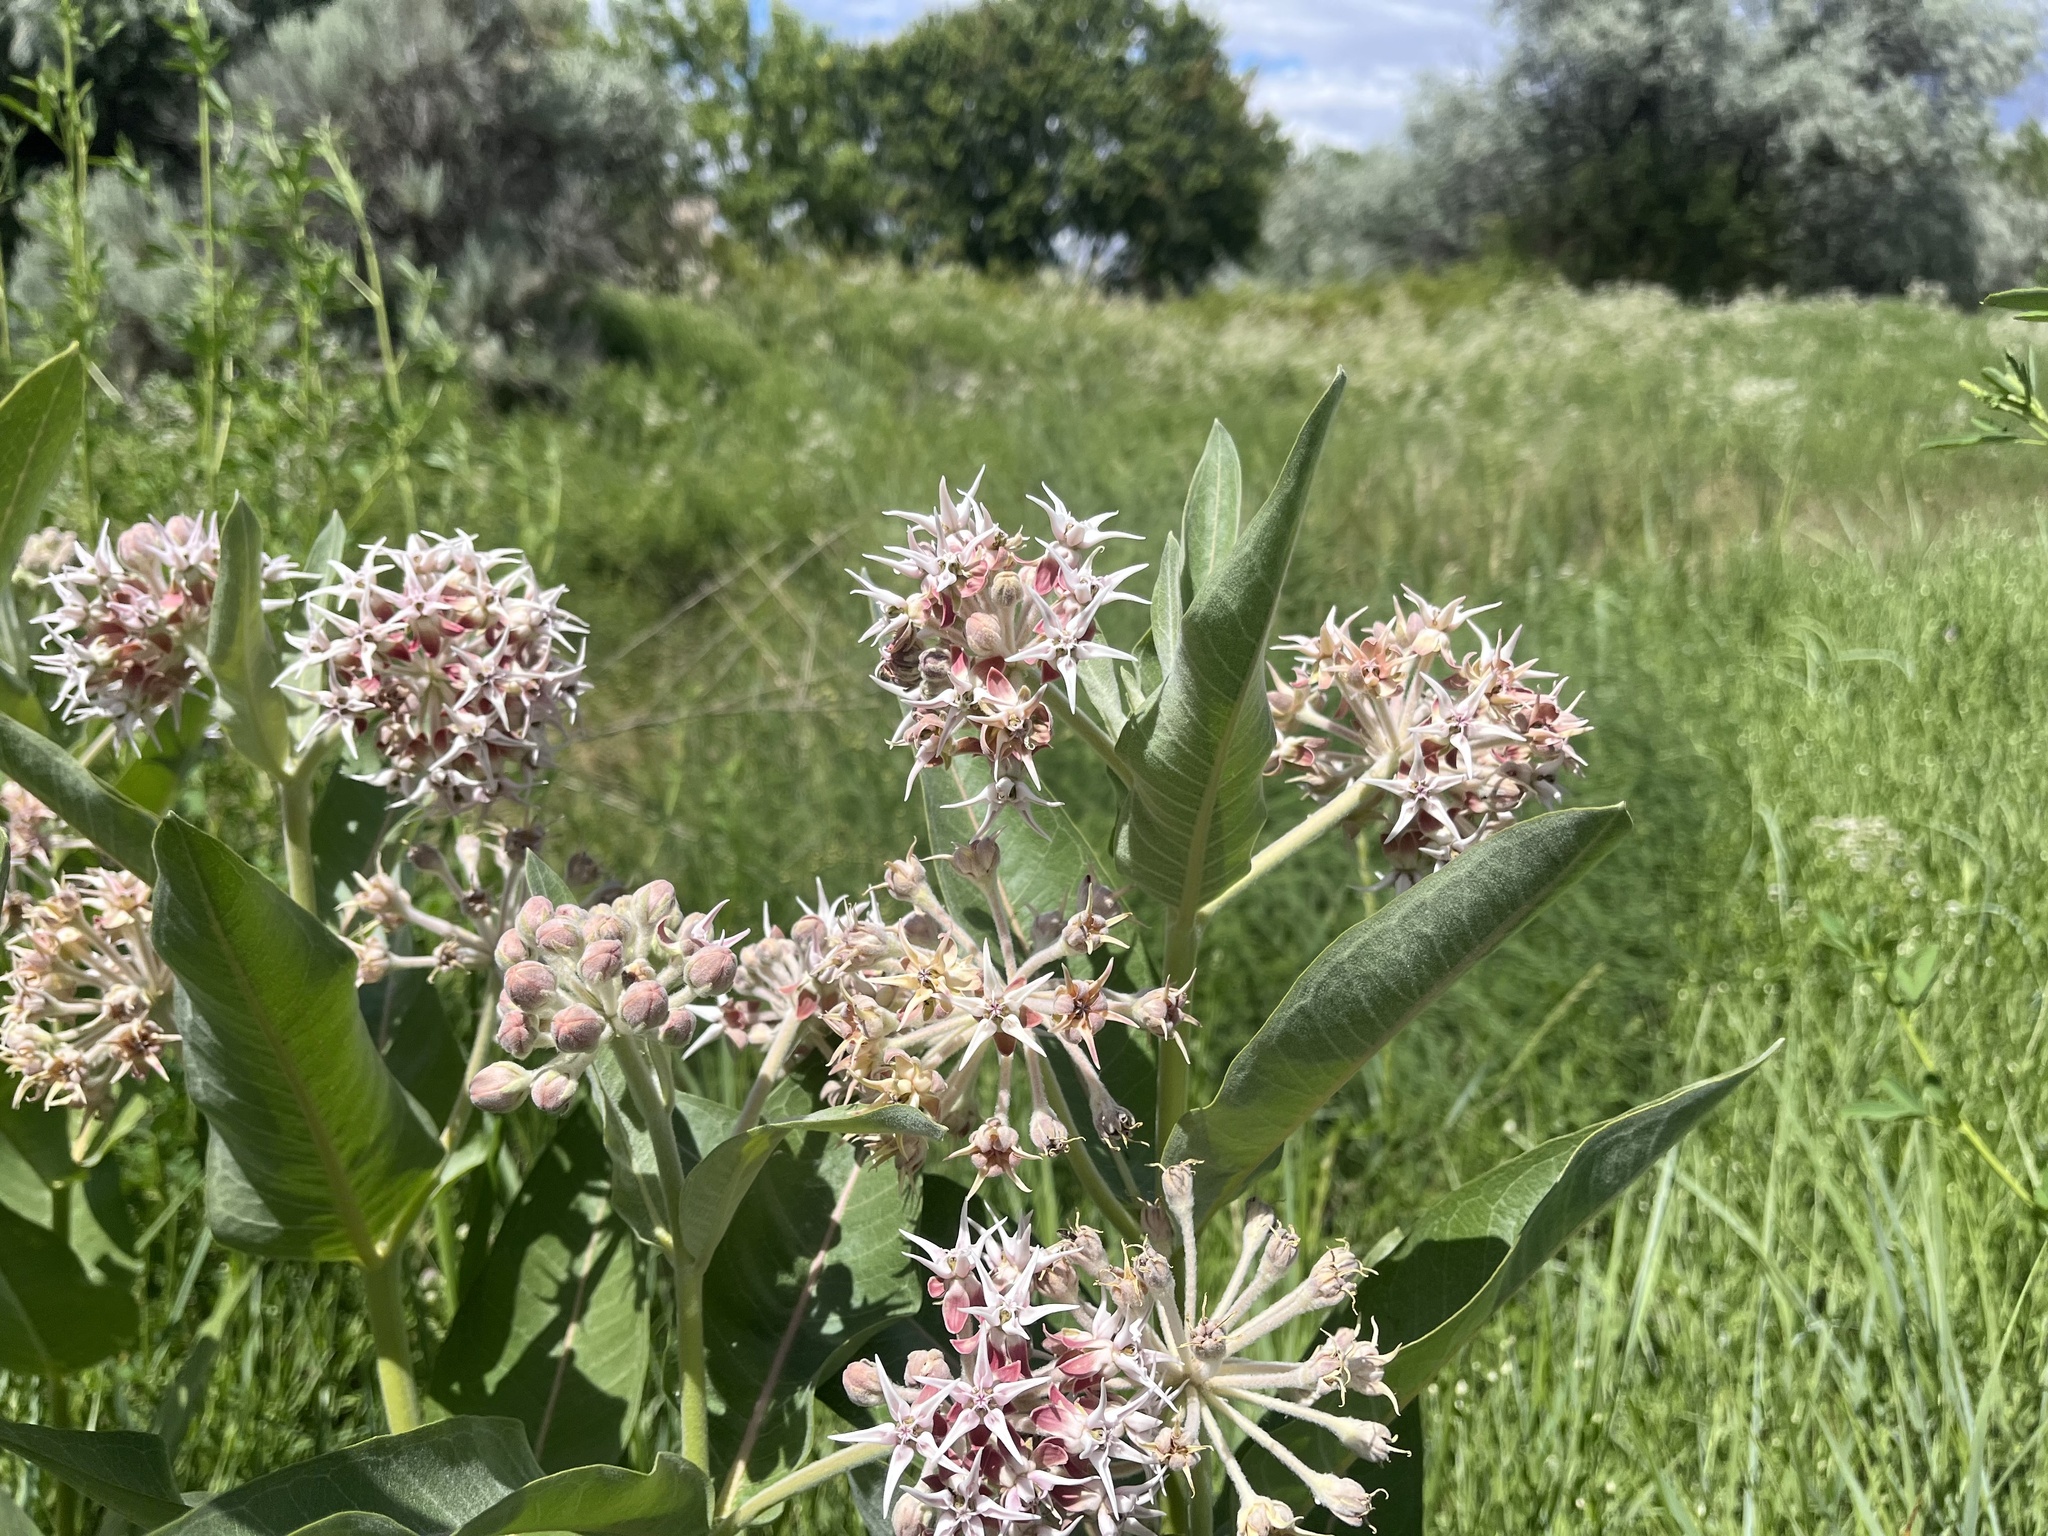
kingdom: Plantae
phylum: Tracheophyta
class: Magnoliopsida
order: Gentianales
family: Apocynaceae
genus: Asclepias
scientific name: Asclepias speciosa
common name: Showy milkweed
